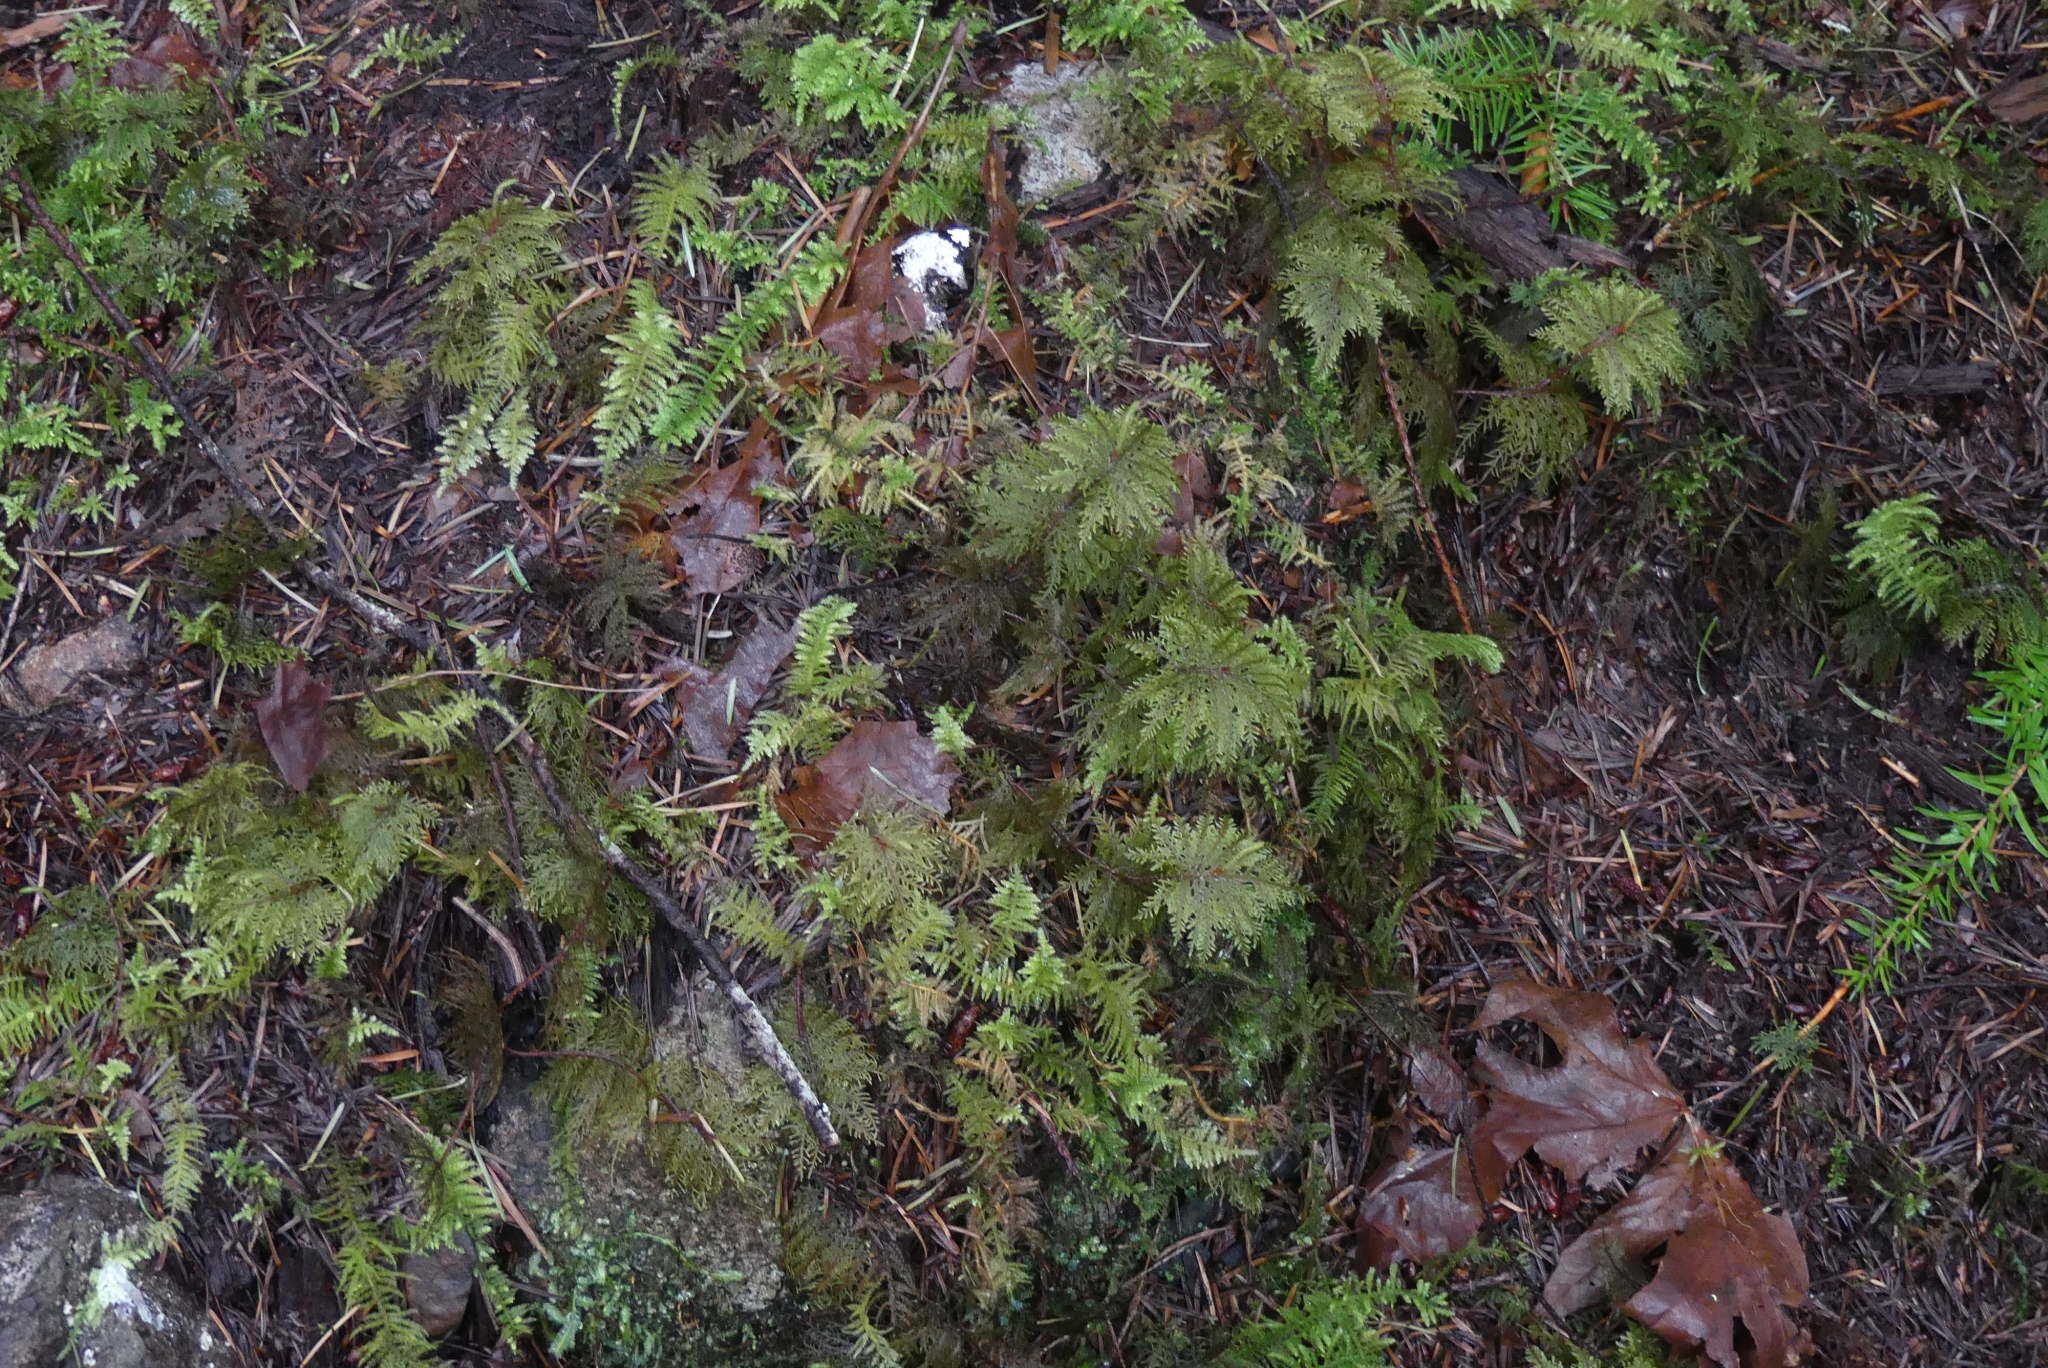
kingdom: Plantae
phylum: Bryophyta
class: Bryopsida
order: Hypnales
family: Hylocomiaceae
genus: Hylocomium
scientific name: Hylocomium splendens
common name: Stairstep moss
